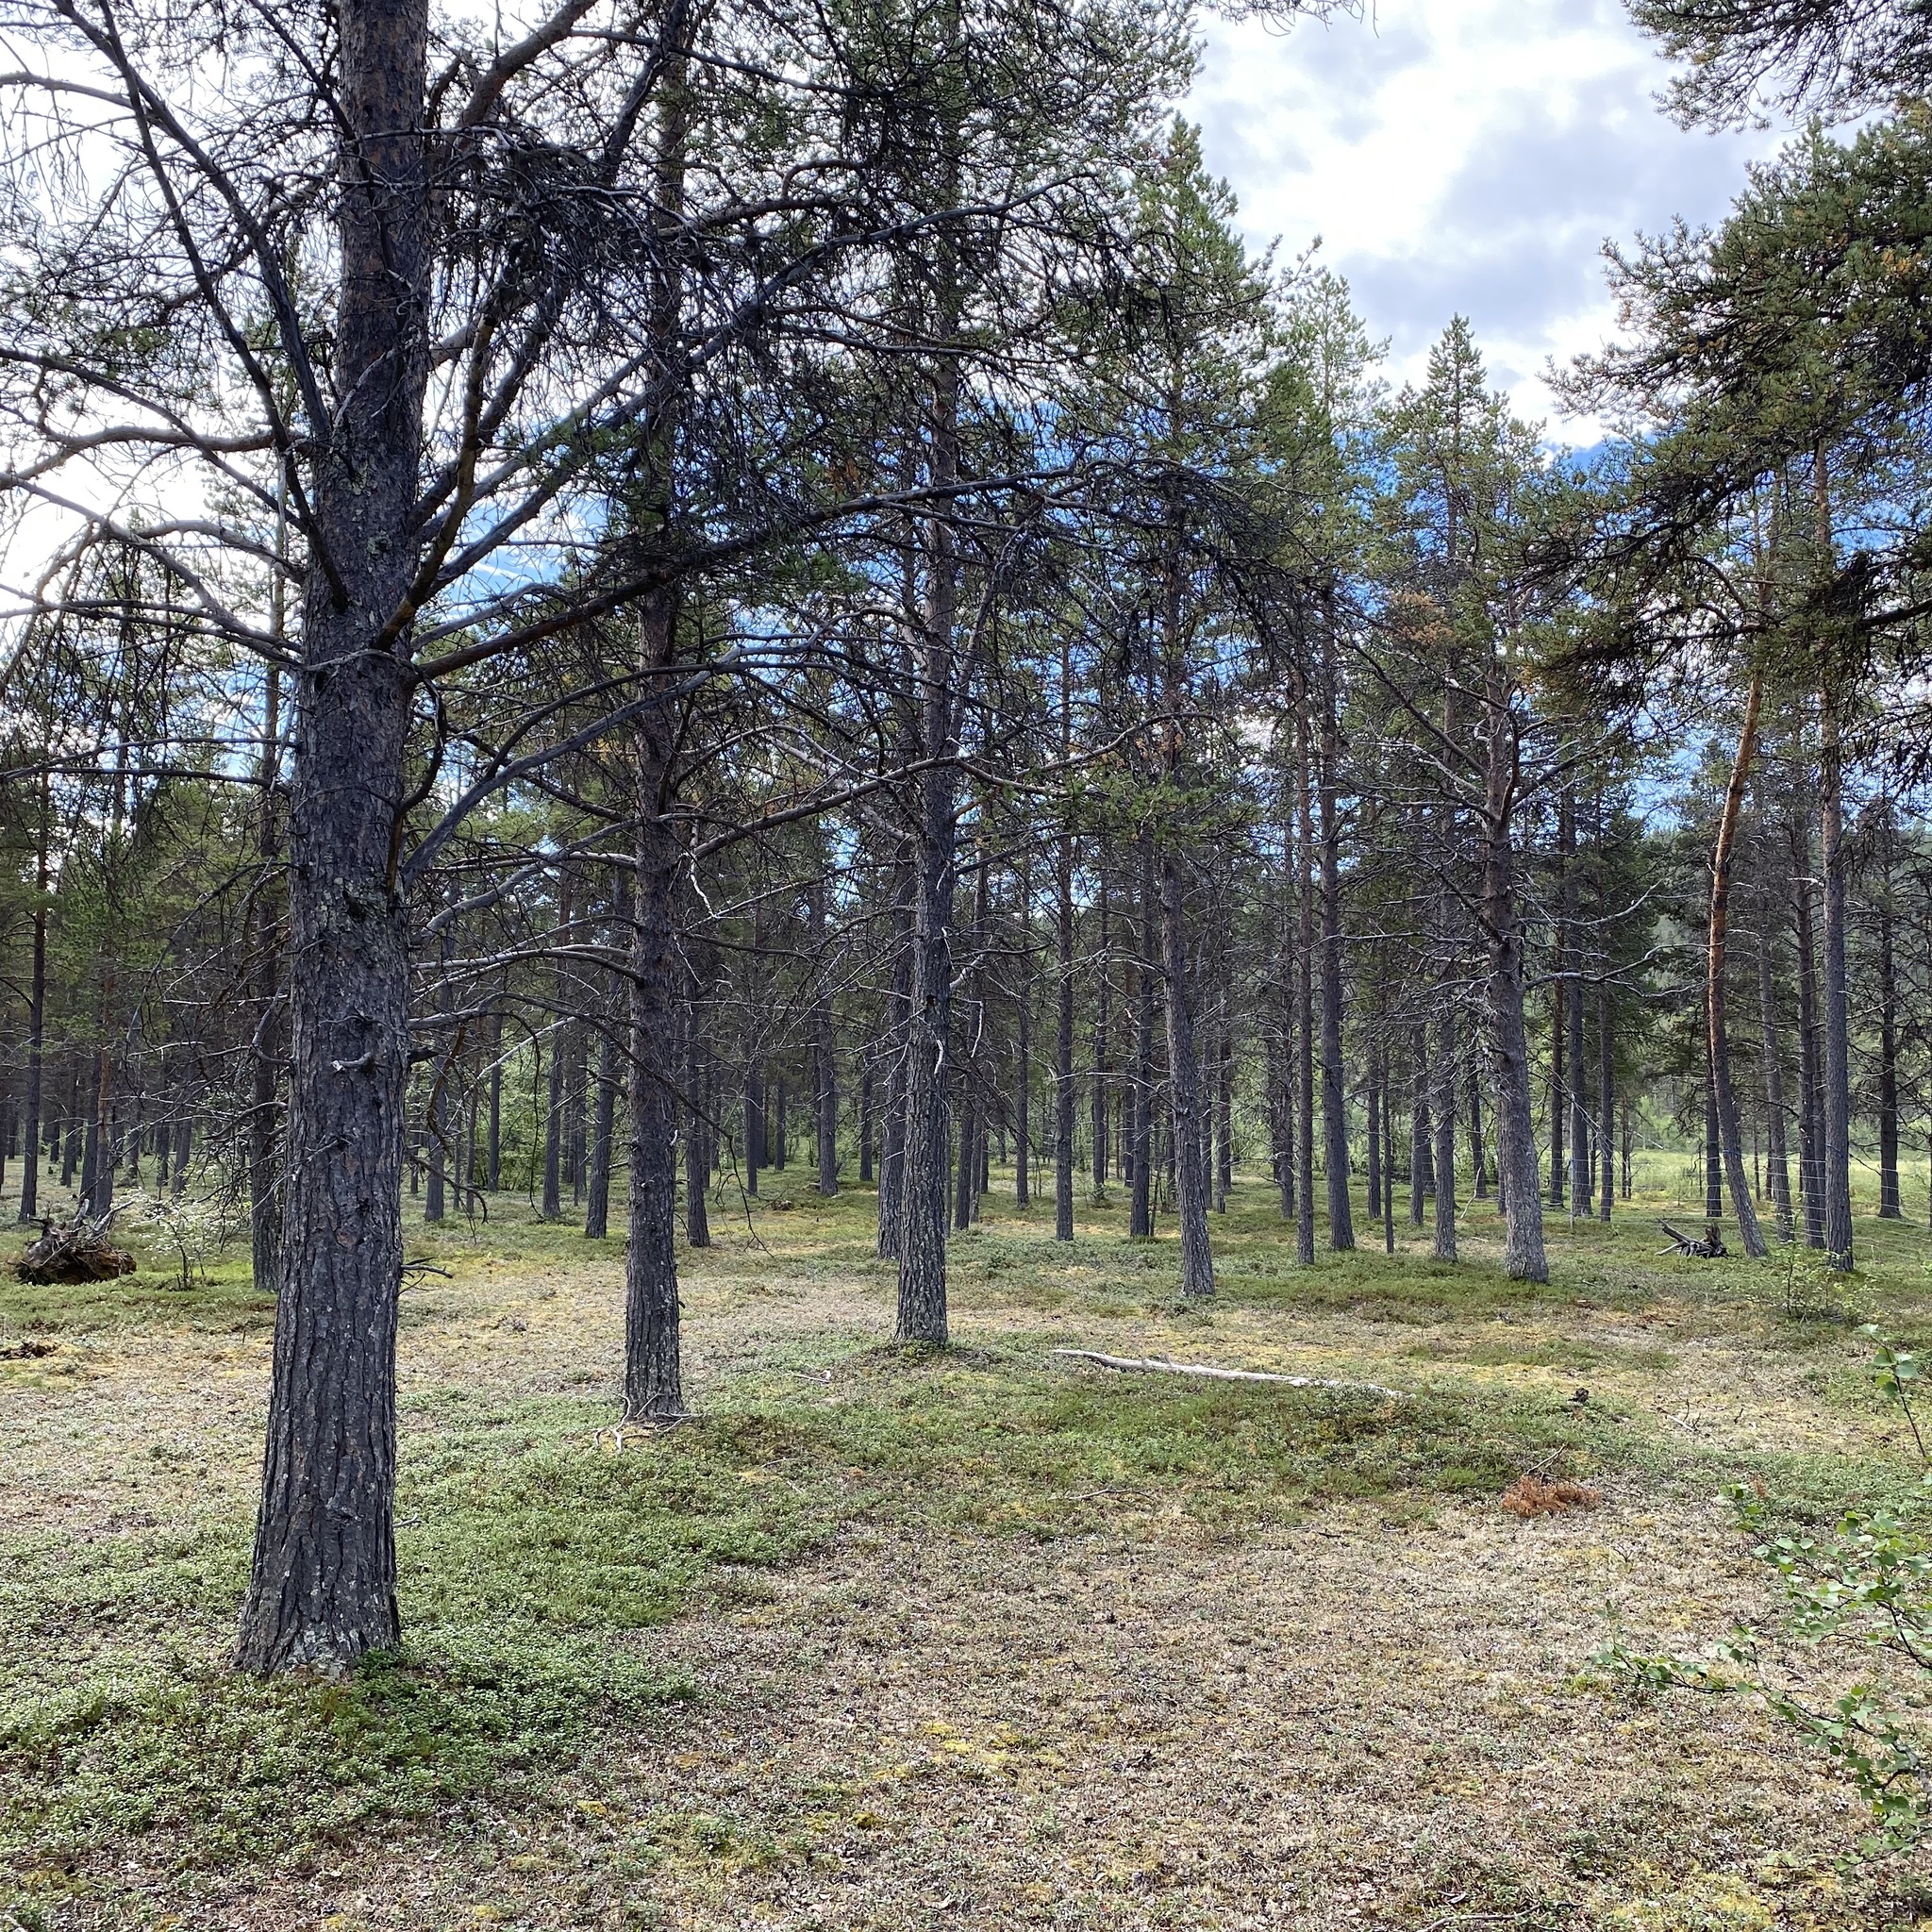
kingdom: Plantae
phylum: Tracheophyta
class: Pinopsida
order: Pinales
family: Pinaceae
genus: Pinus
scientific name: Pinus sylvestris
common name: Scots pine
